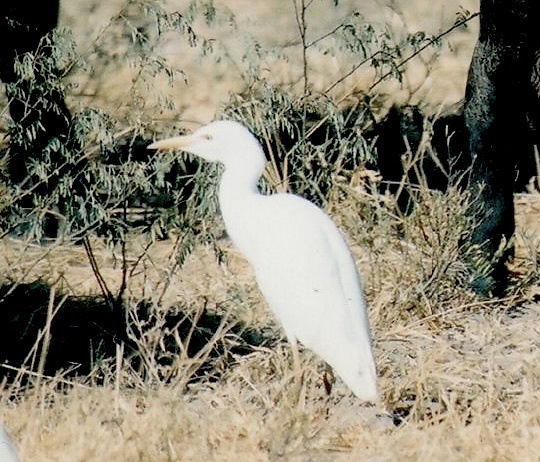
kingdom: Animalia
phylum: Chordata
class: Aves
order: Pelecaniformes
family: Ardeidae
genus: Bubulcus
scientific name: Bubulcus ibis
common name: Cattle egret
